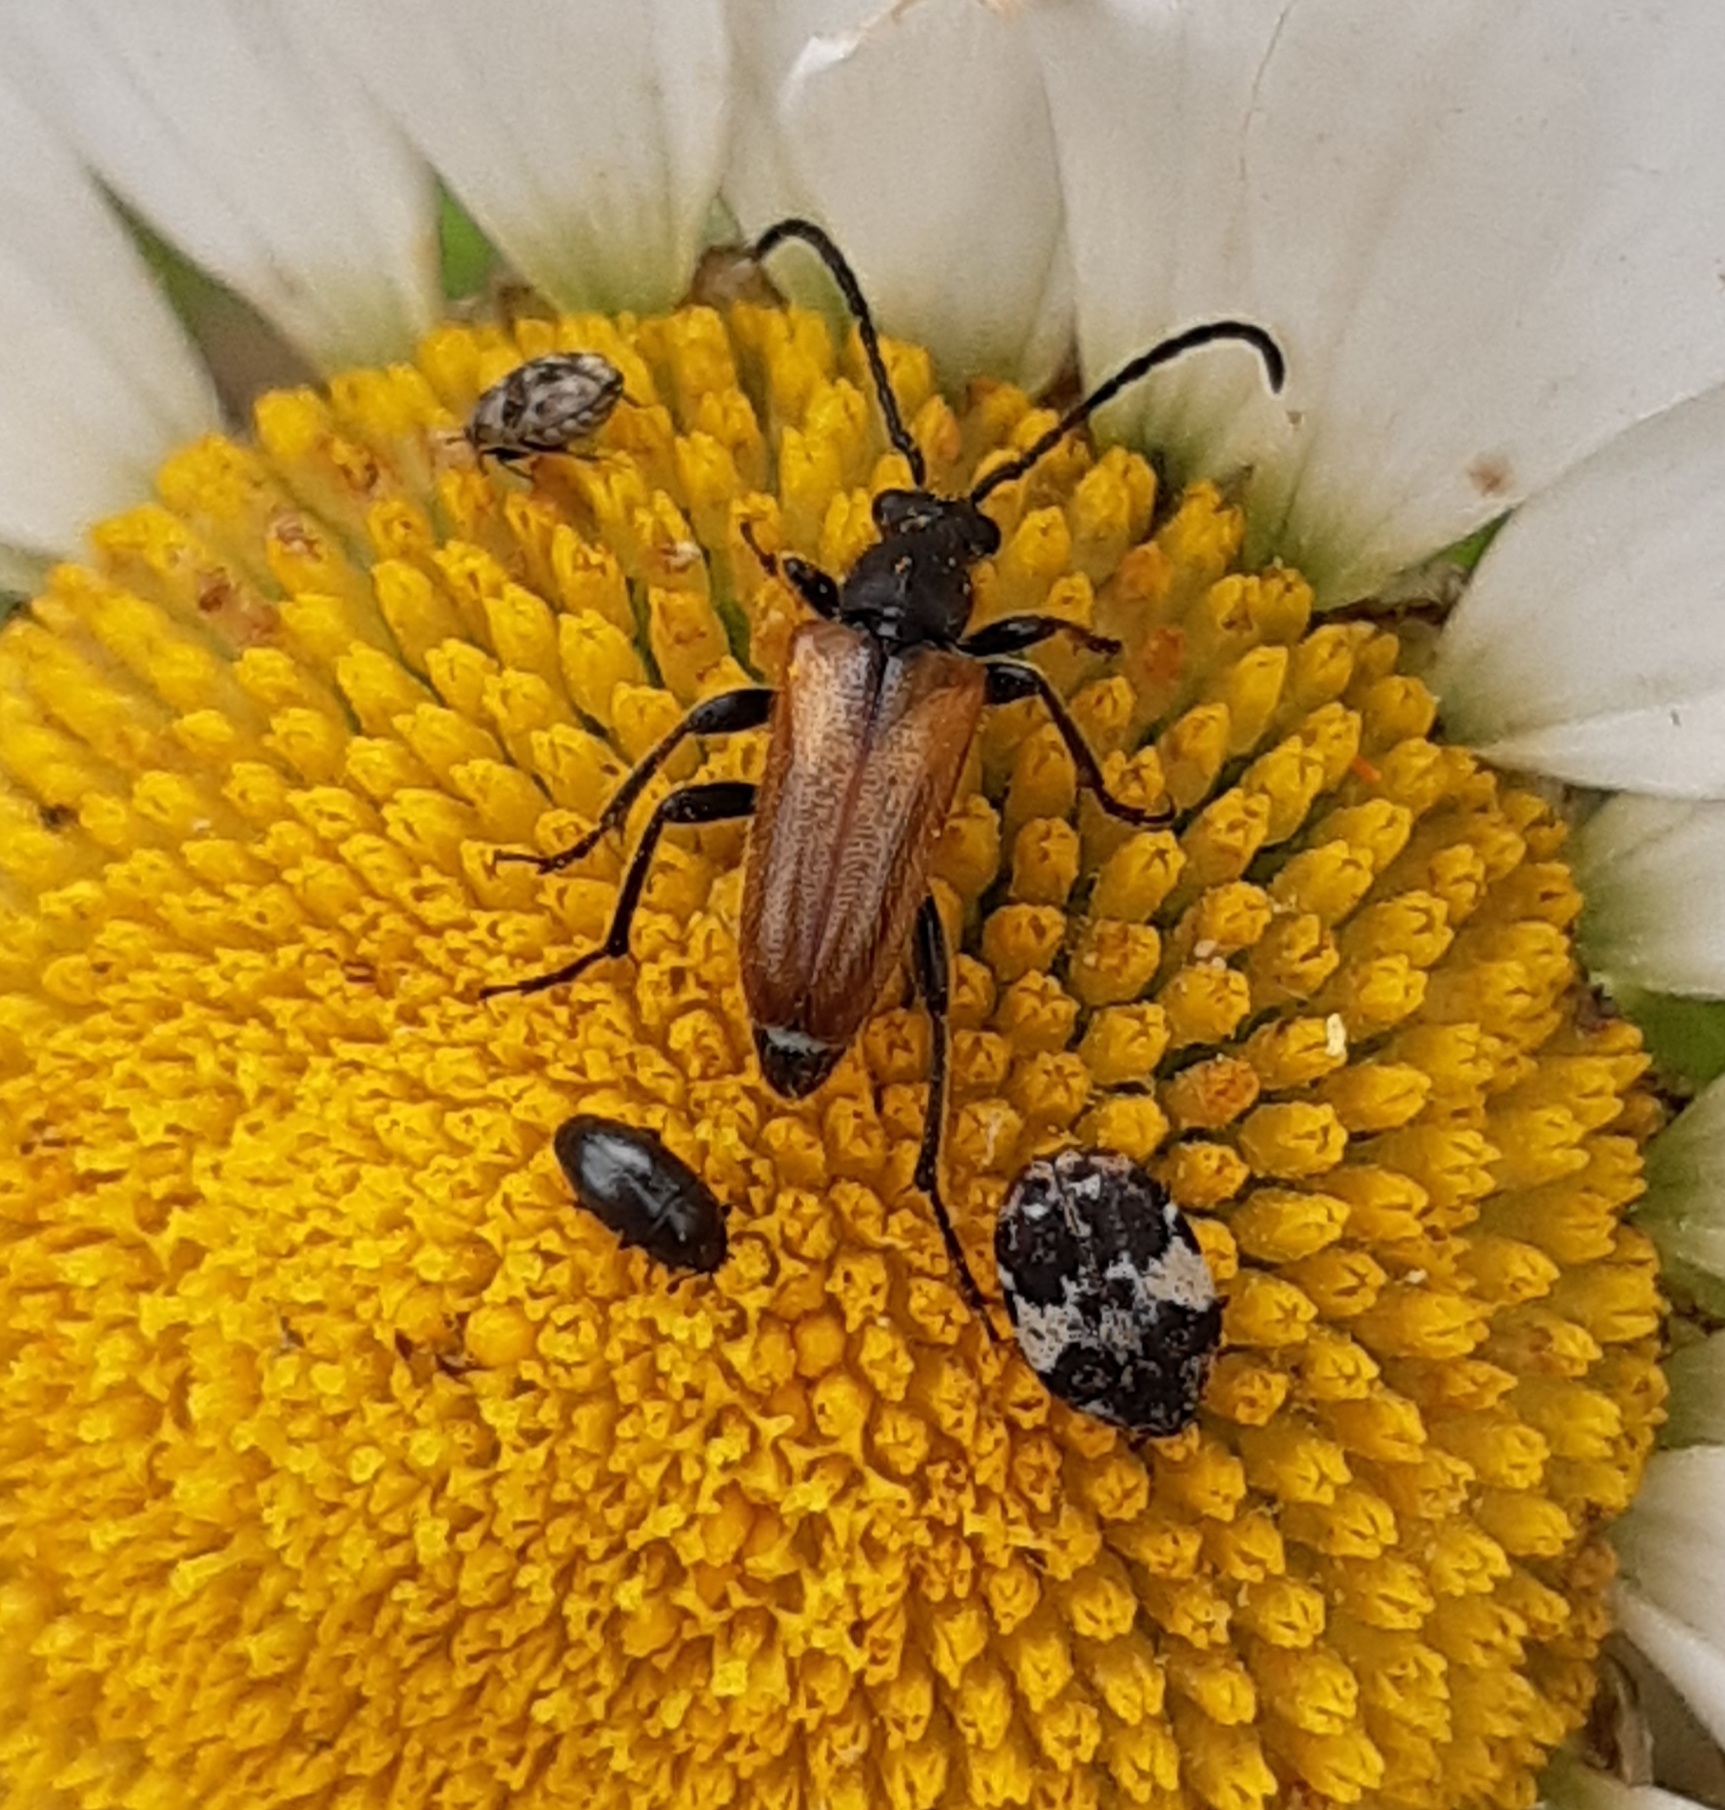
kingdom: Animalia
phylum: Arthropoda
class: Insecta
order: Coleoptera
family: Cerambycidae
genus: Pseudovadonia
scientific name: Pseudovadonia livida
